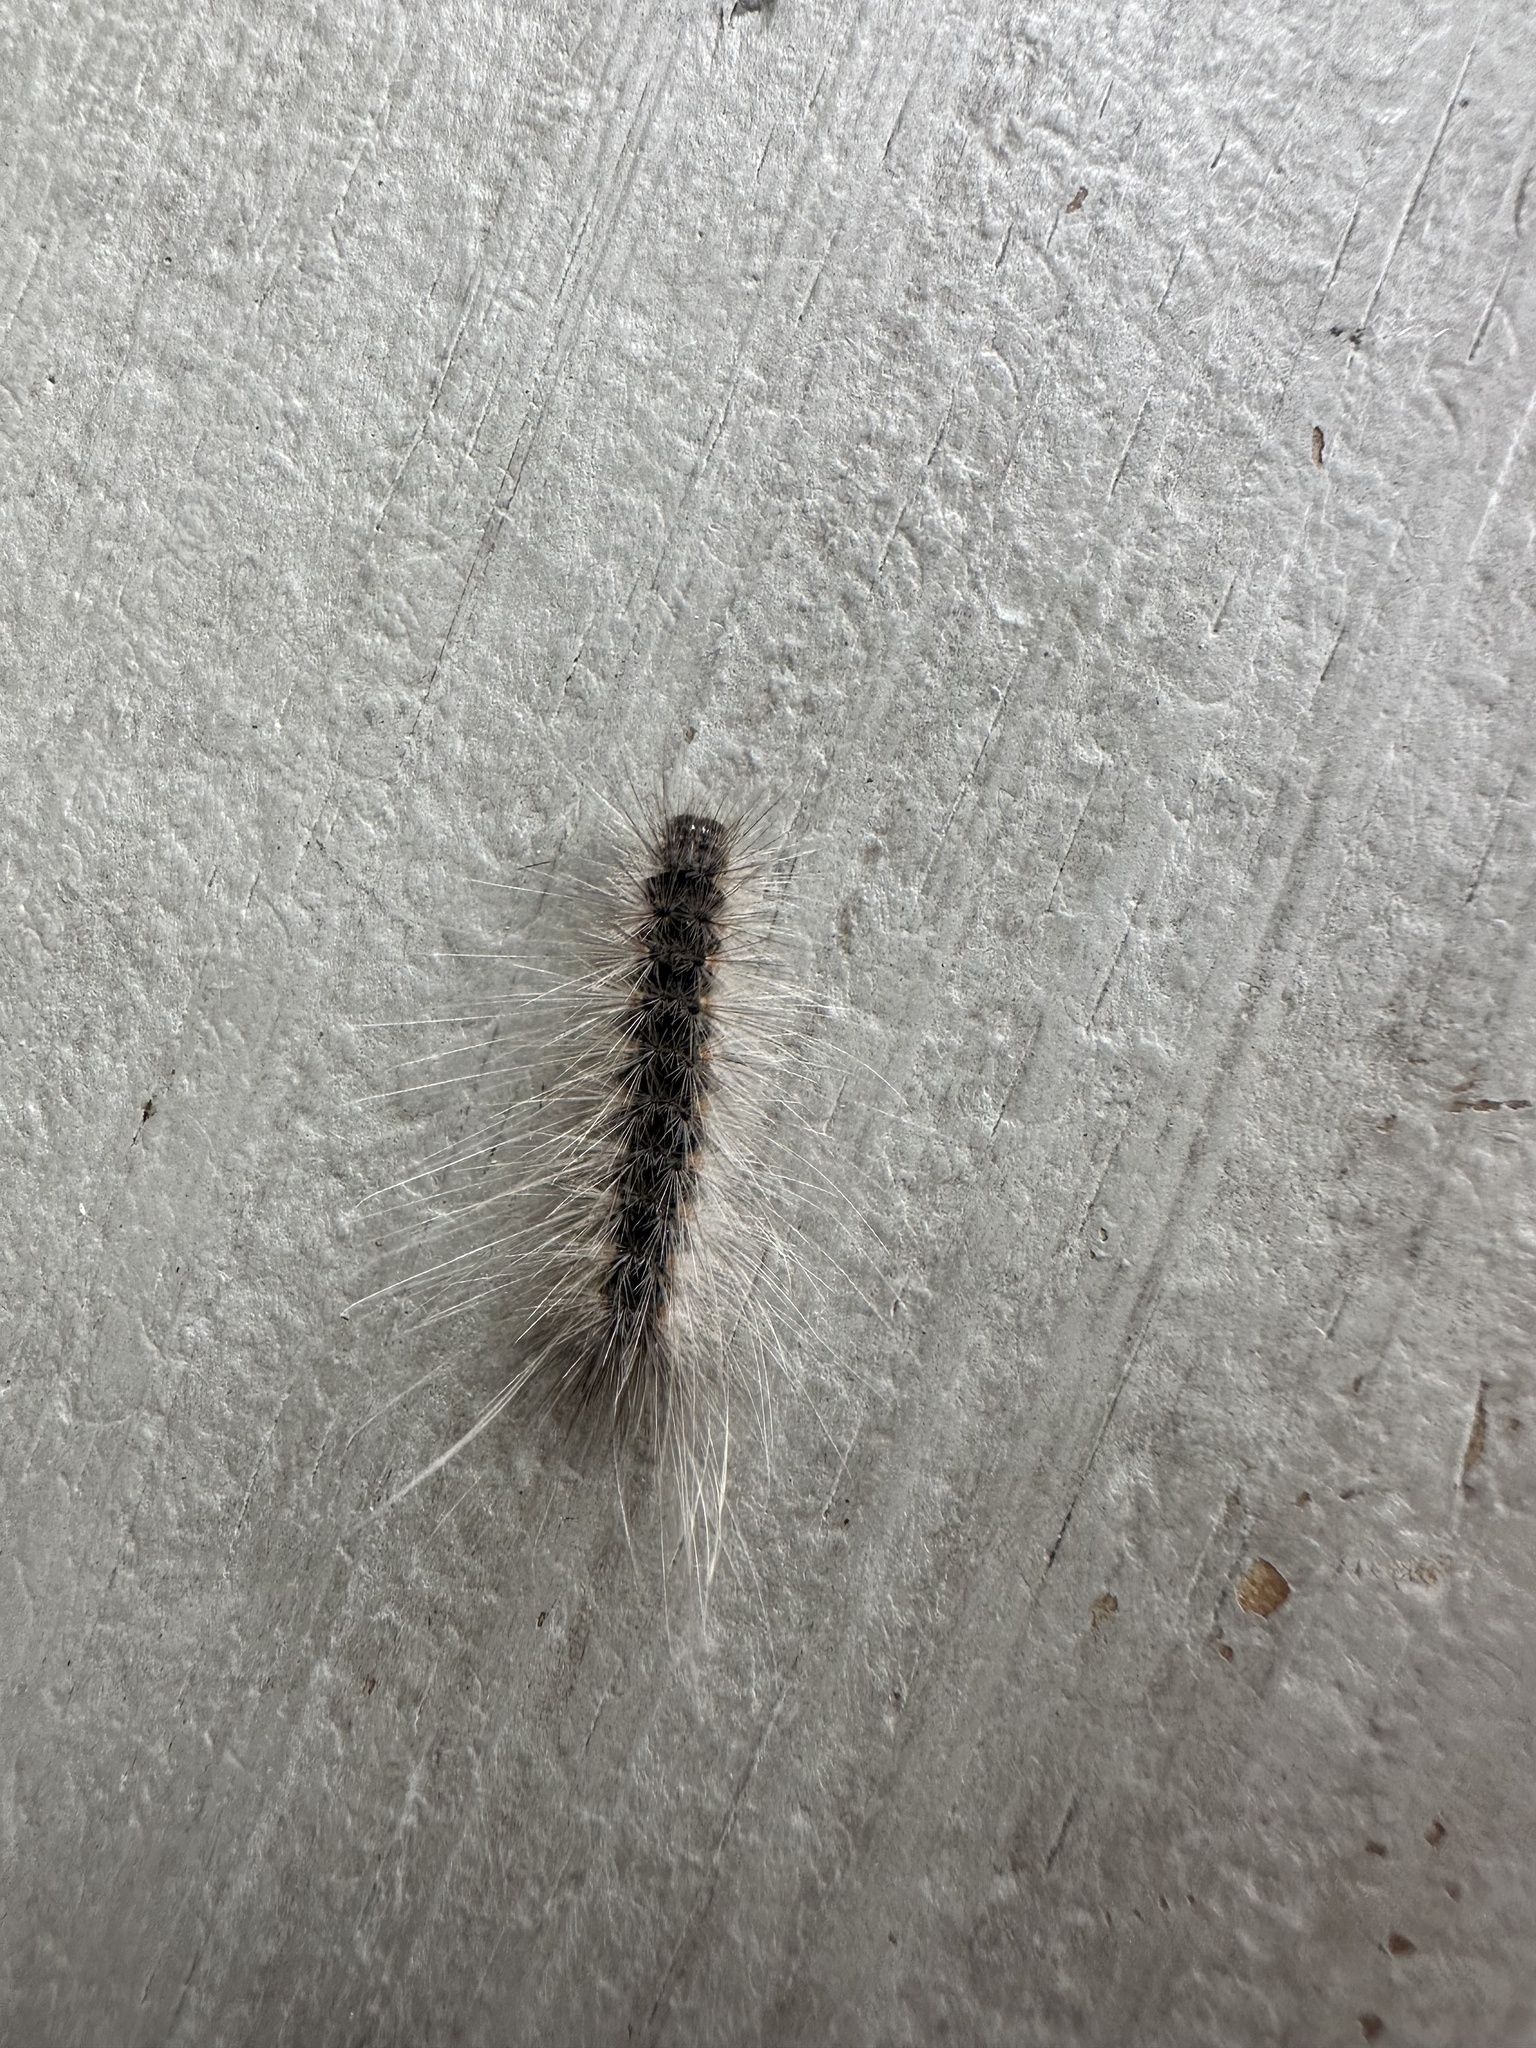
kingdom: Animalia
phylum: Arthropoda
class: Insecta
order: Lepidoptera
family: Erebidae
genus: Hyphantria
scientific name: Hyphantria cunea
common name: American white moth
